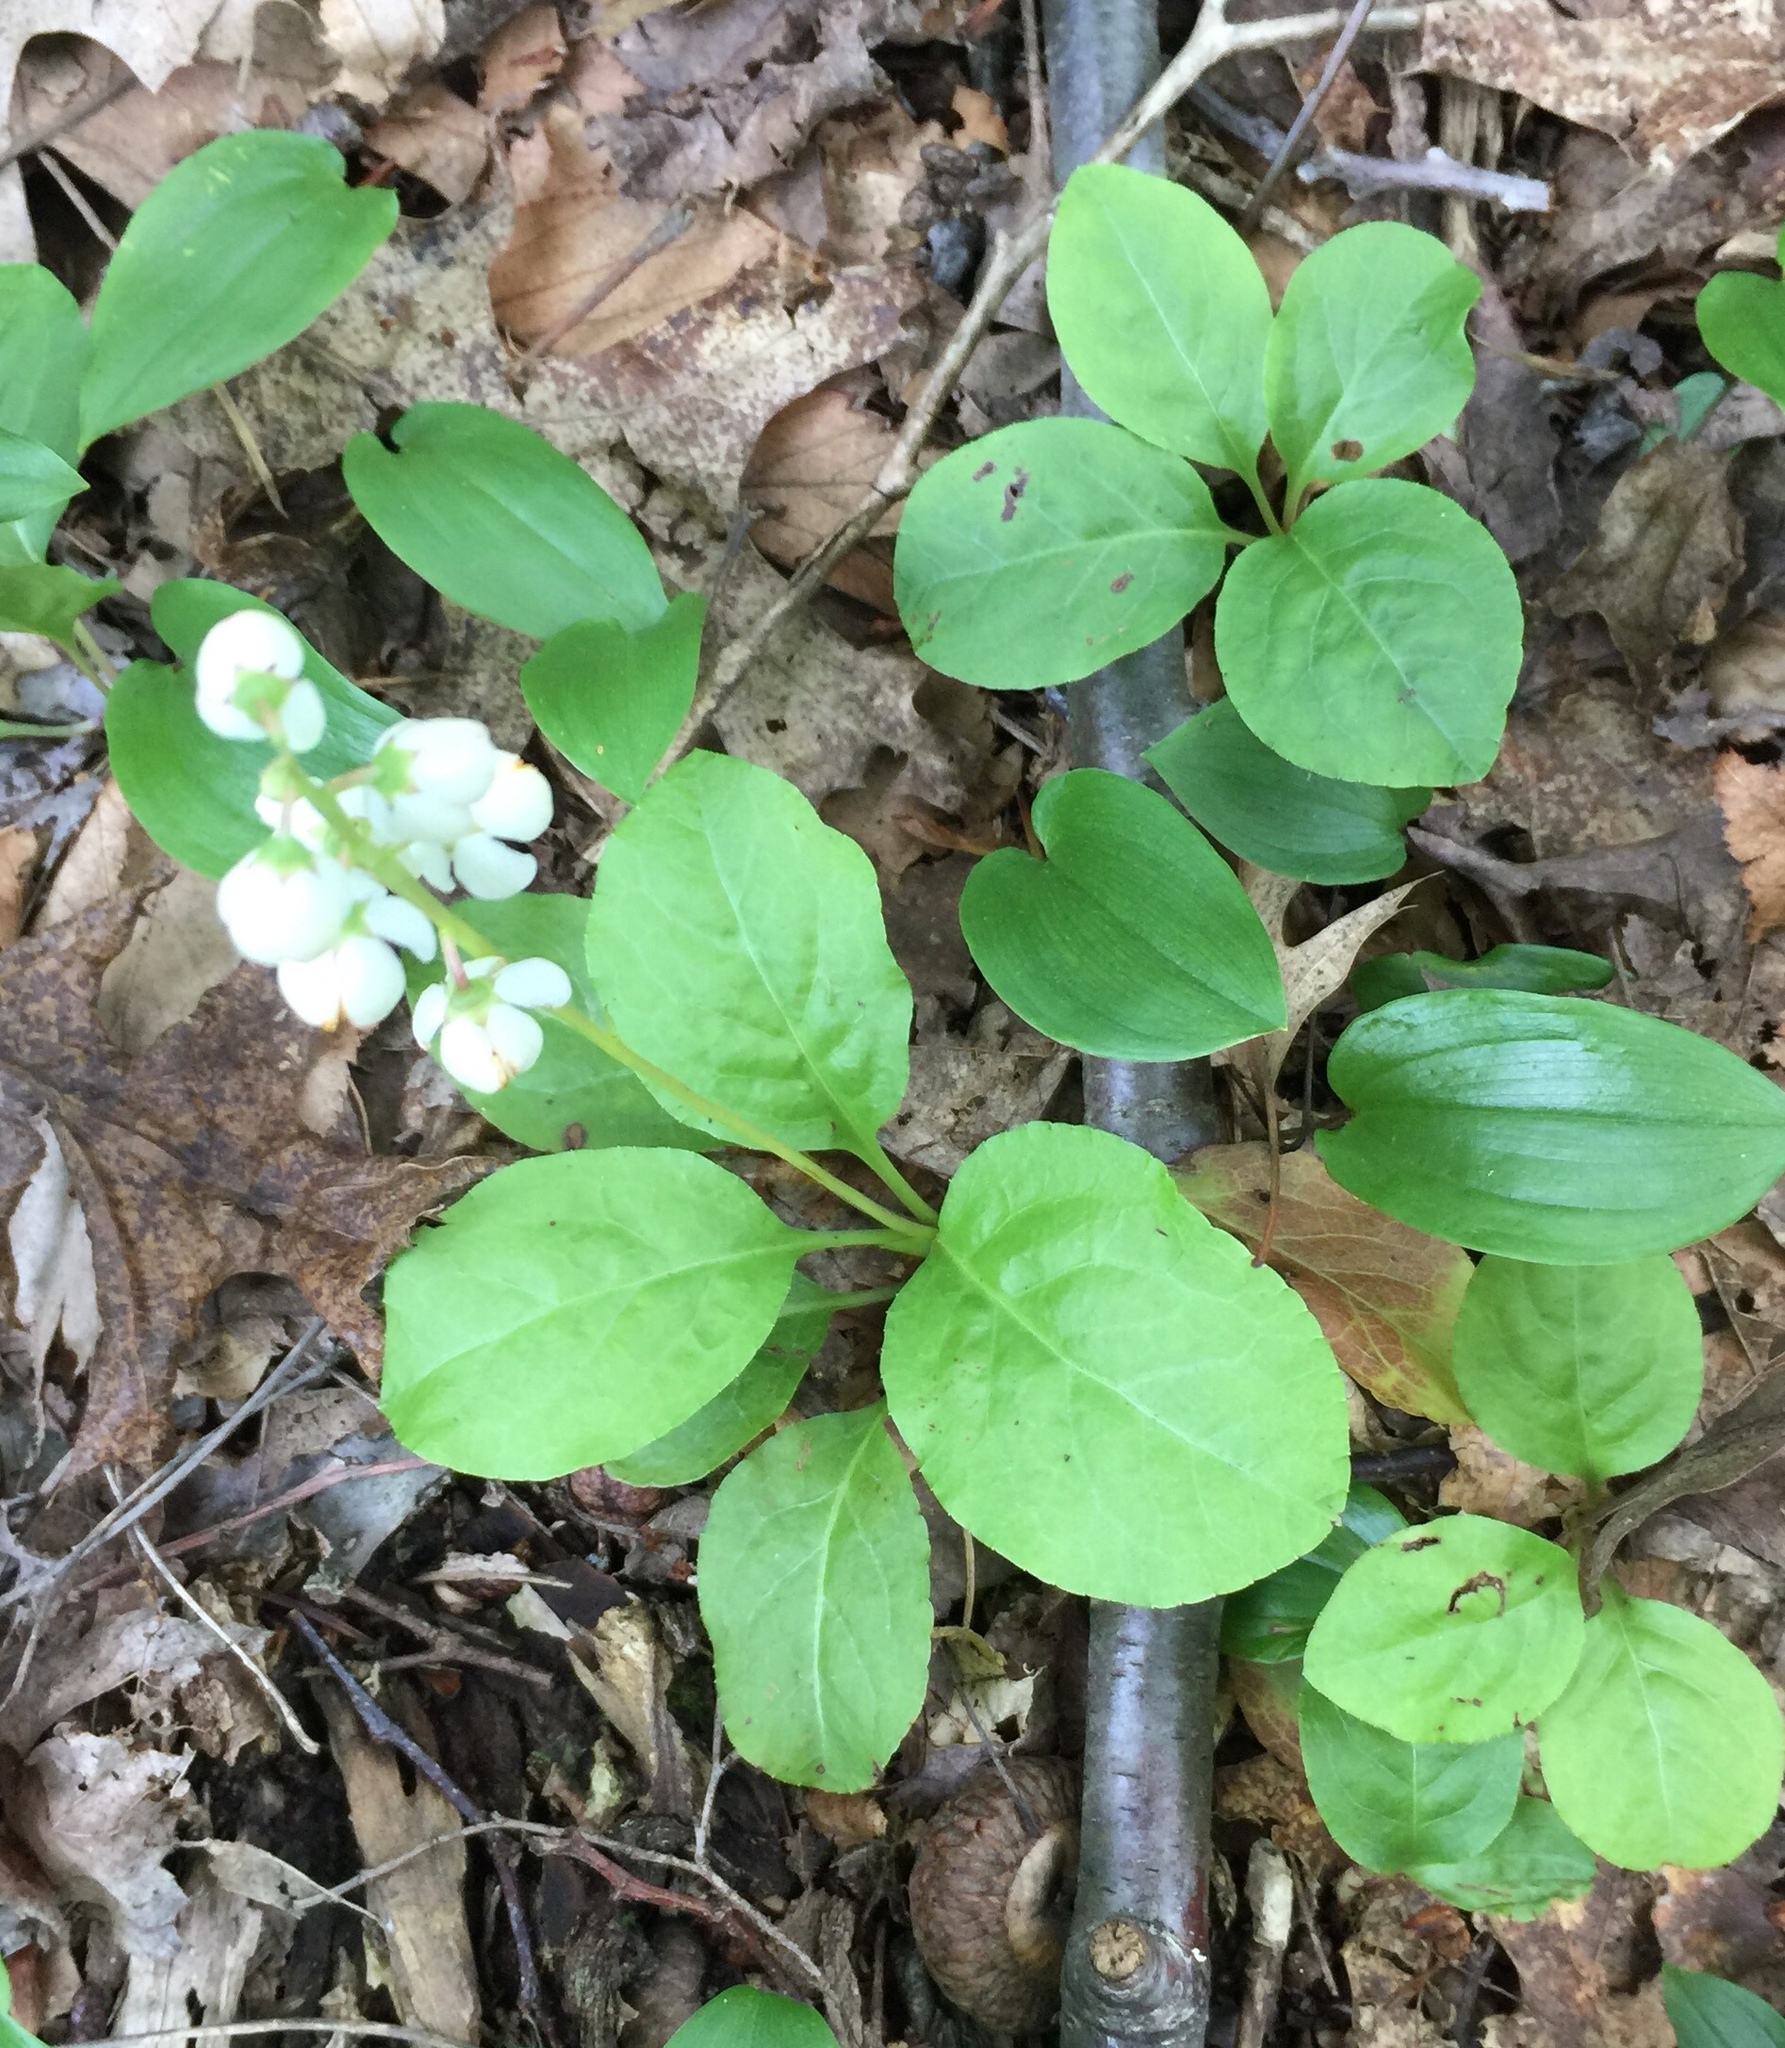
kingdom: Plantae
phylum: Tracheophyta
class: Magnoliopsida
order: Ericales
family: Ericaceae
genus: Pyrola
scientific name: Pyrola elliptica
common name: Shinleaf
